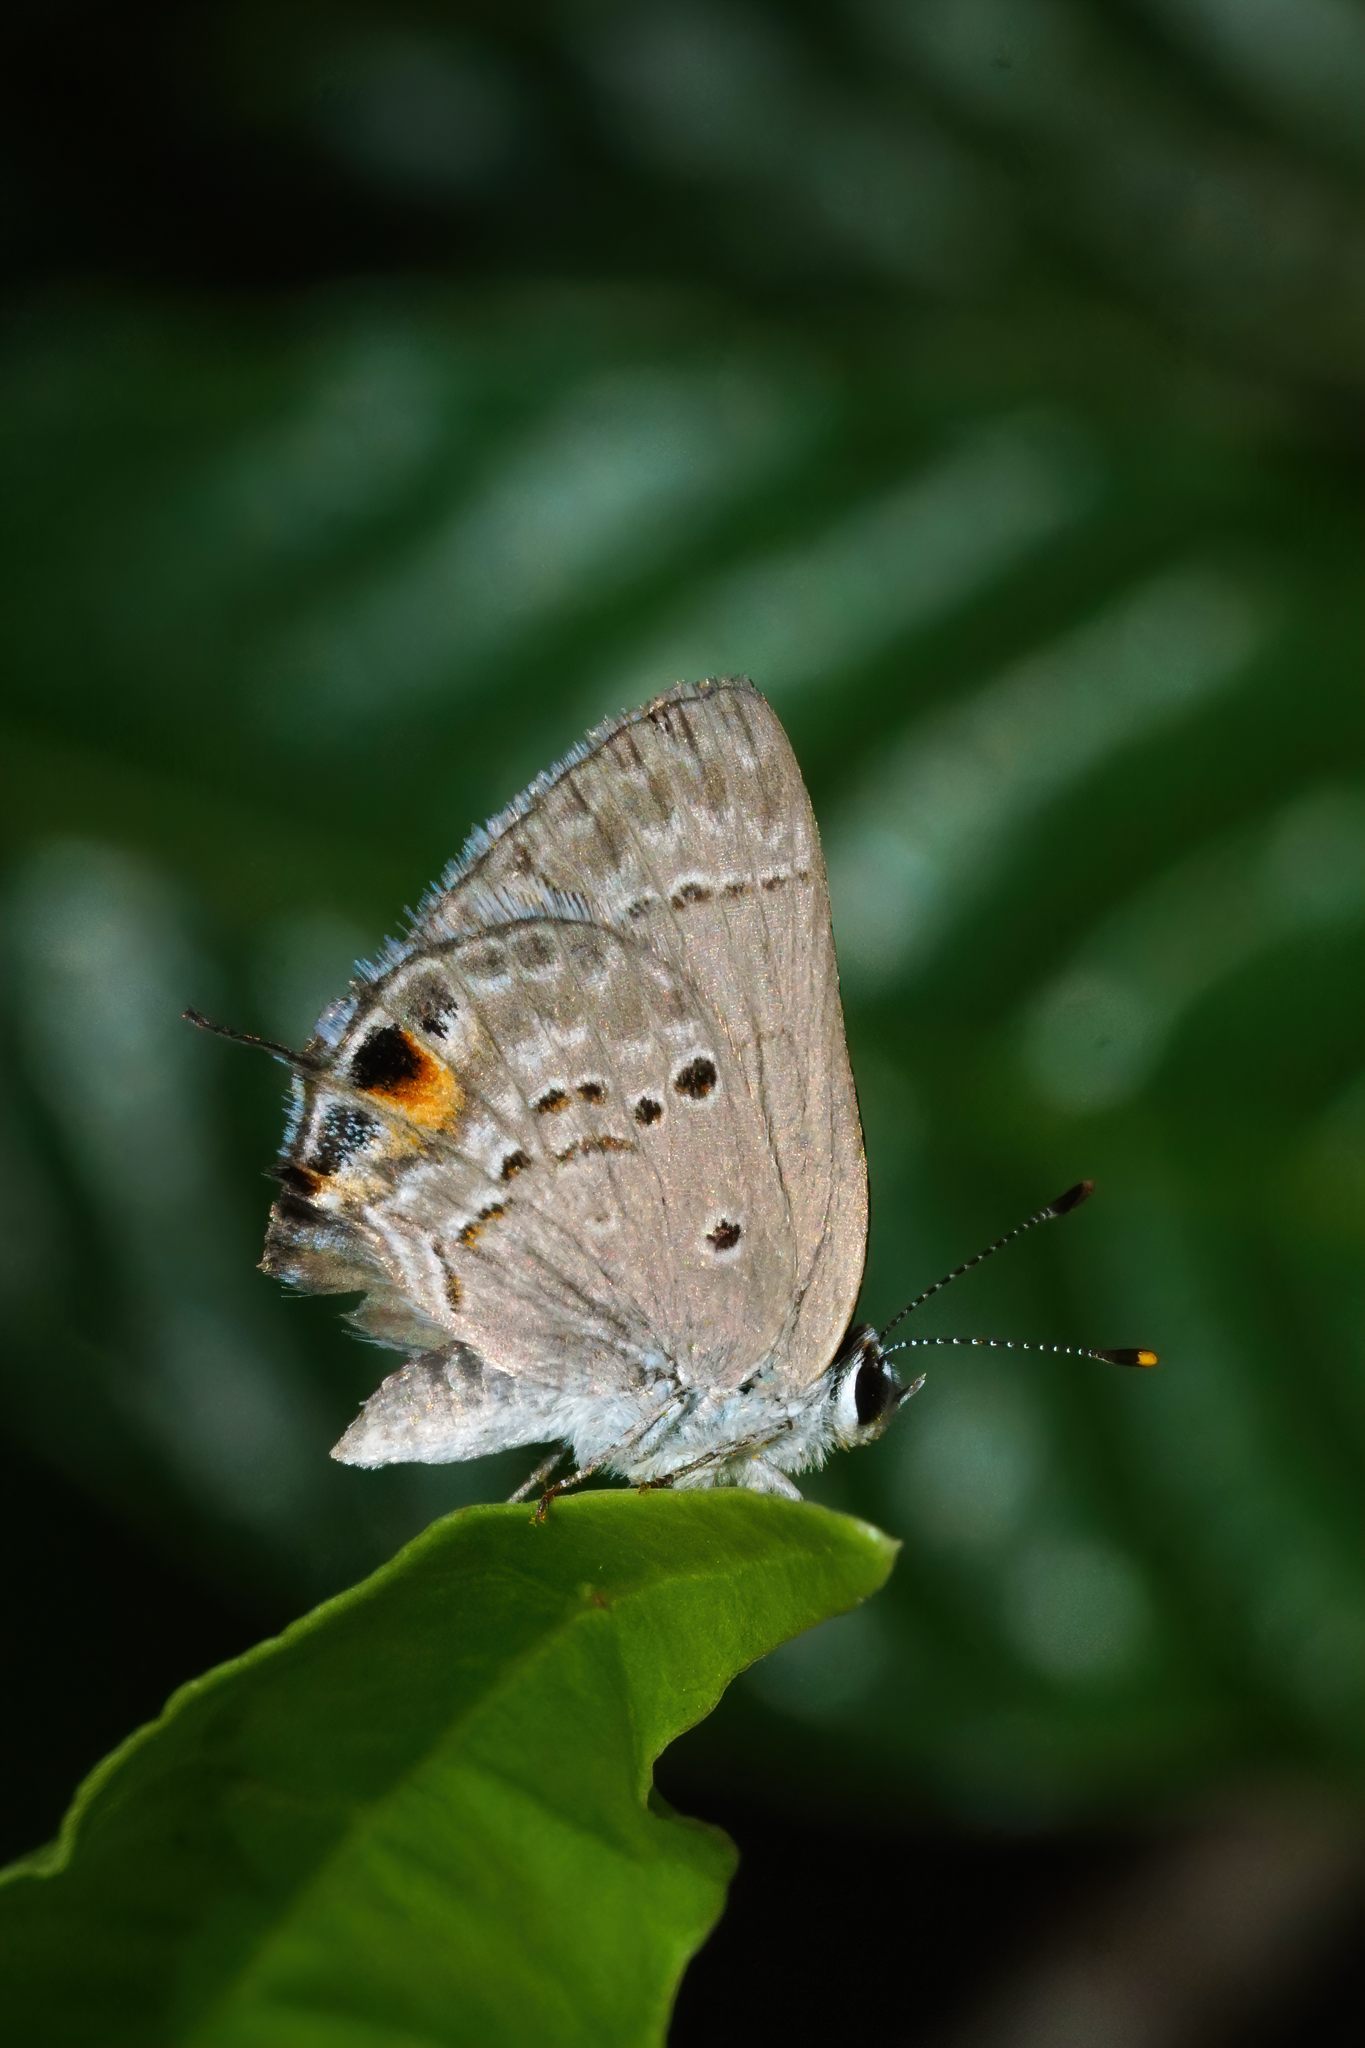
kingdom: Animalia
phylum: Arthropoda
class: Insecta
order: Lepidoptera
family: Lycaenidae
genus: Callicista
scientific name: Callicista columella
